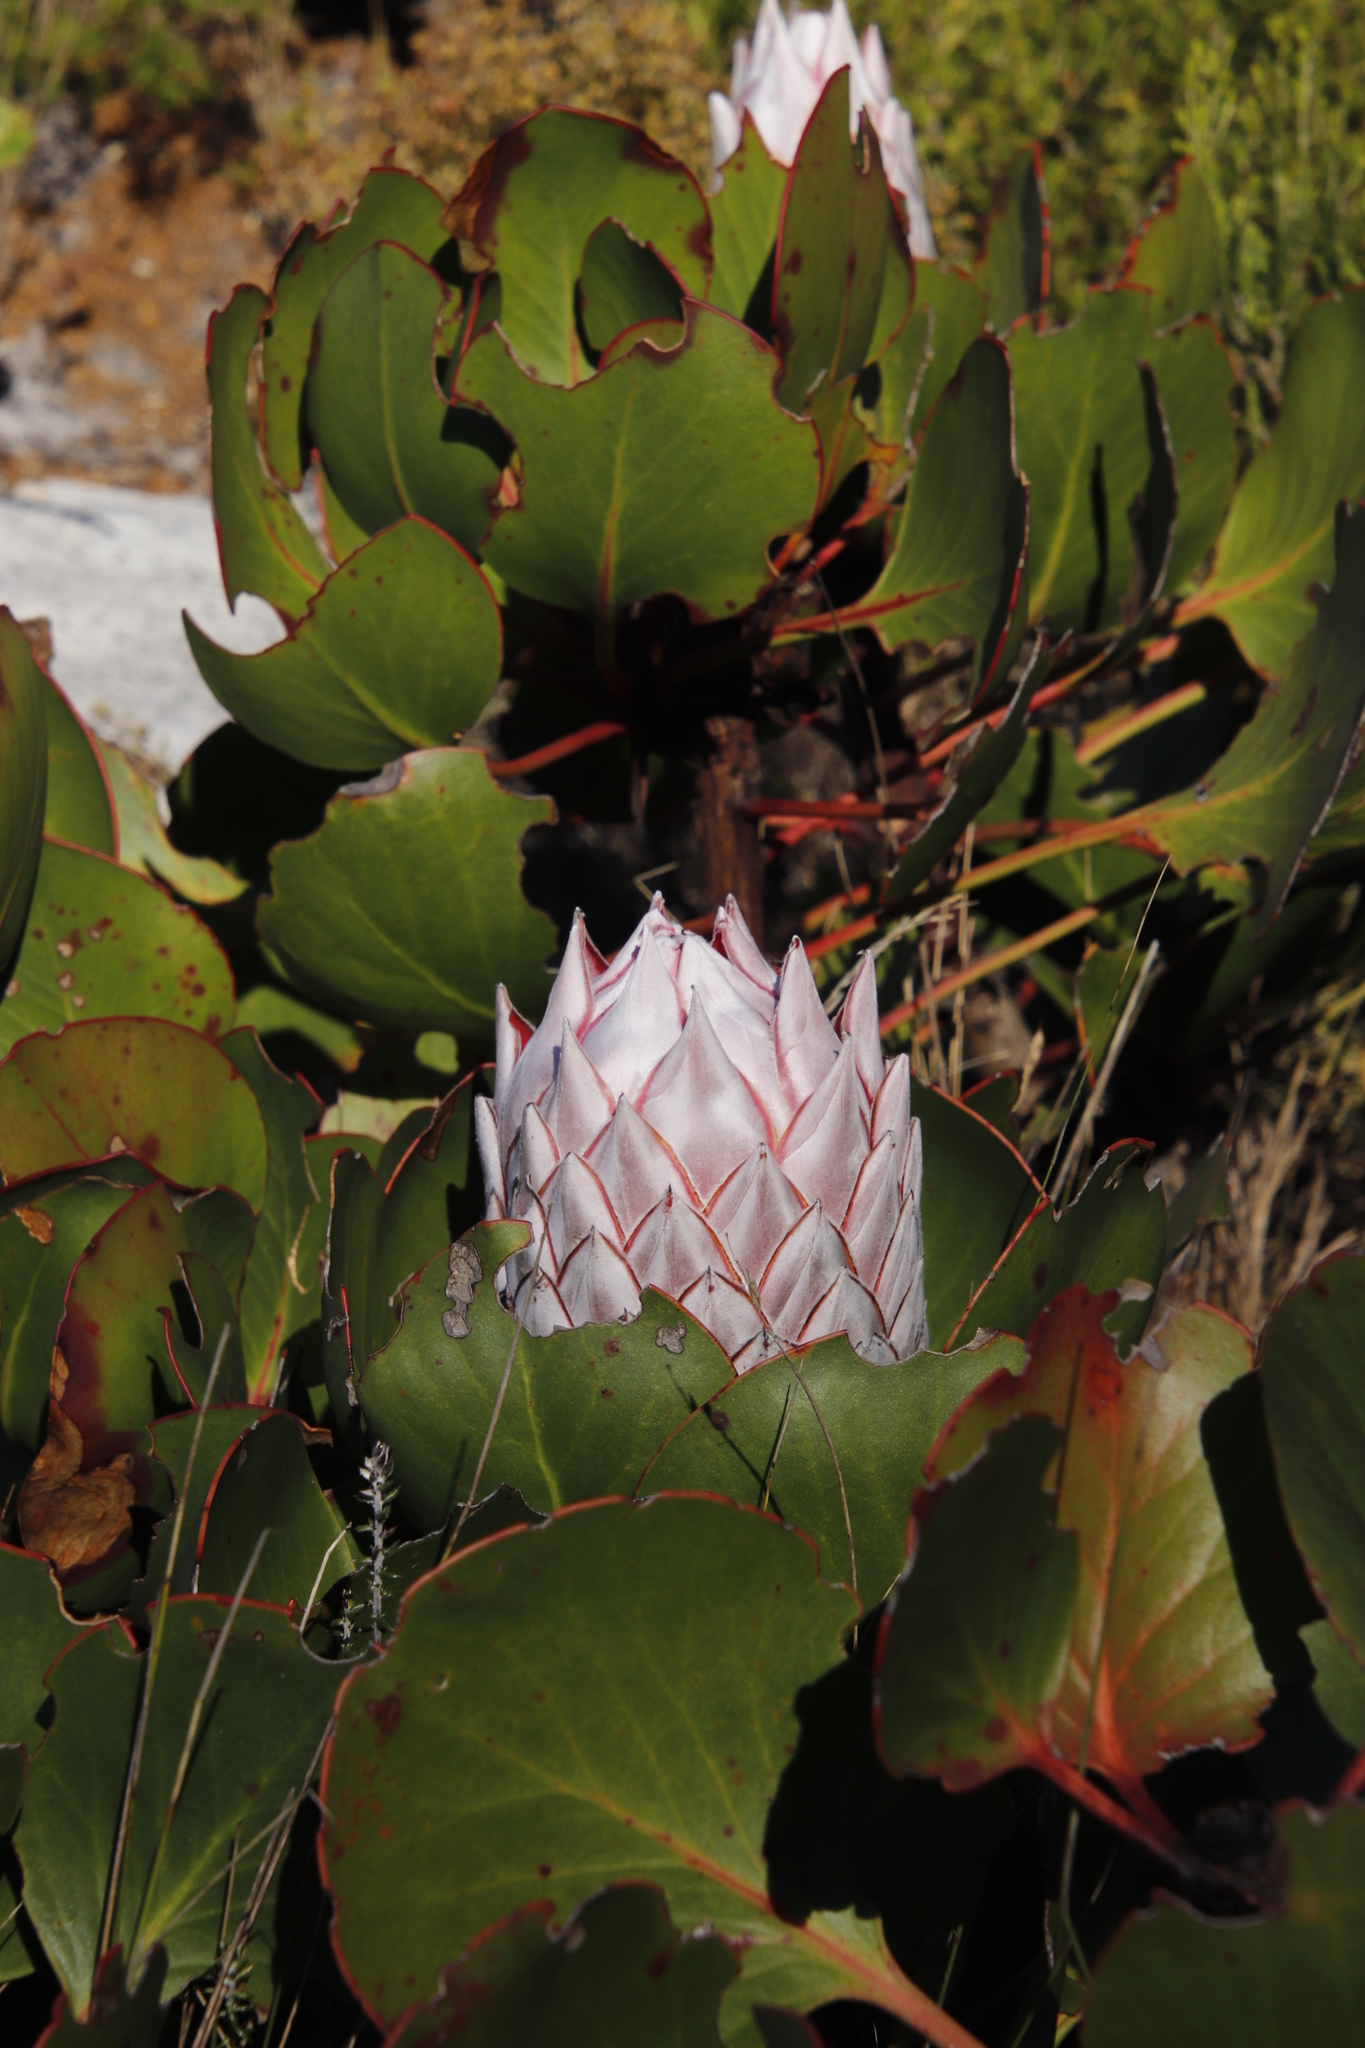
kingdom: Plantae
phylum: Tracheophyta
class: Magnoliopsida
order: Proteales
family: Proteaceae
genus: Protea
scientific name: Protea cynaroides
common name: King protea
